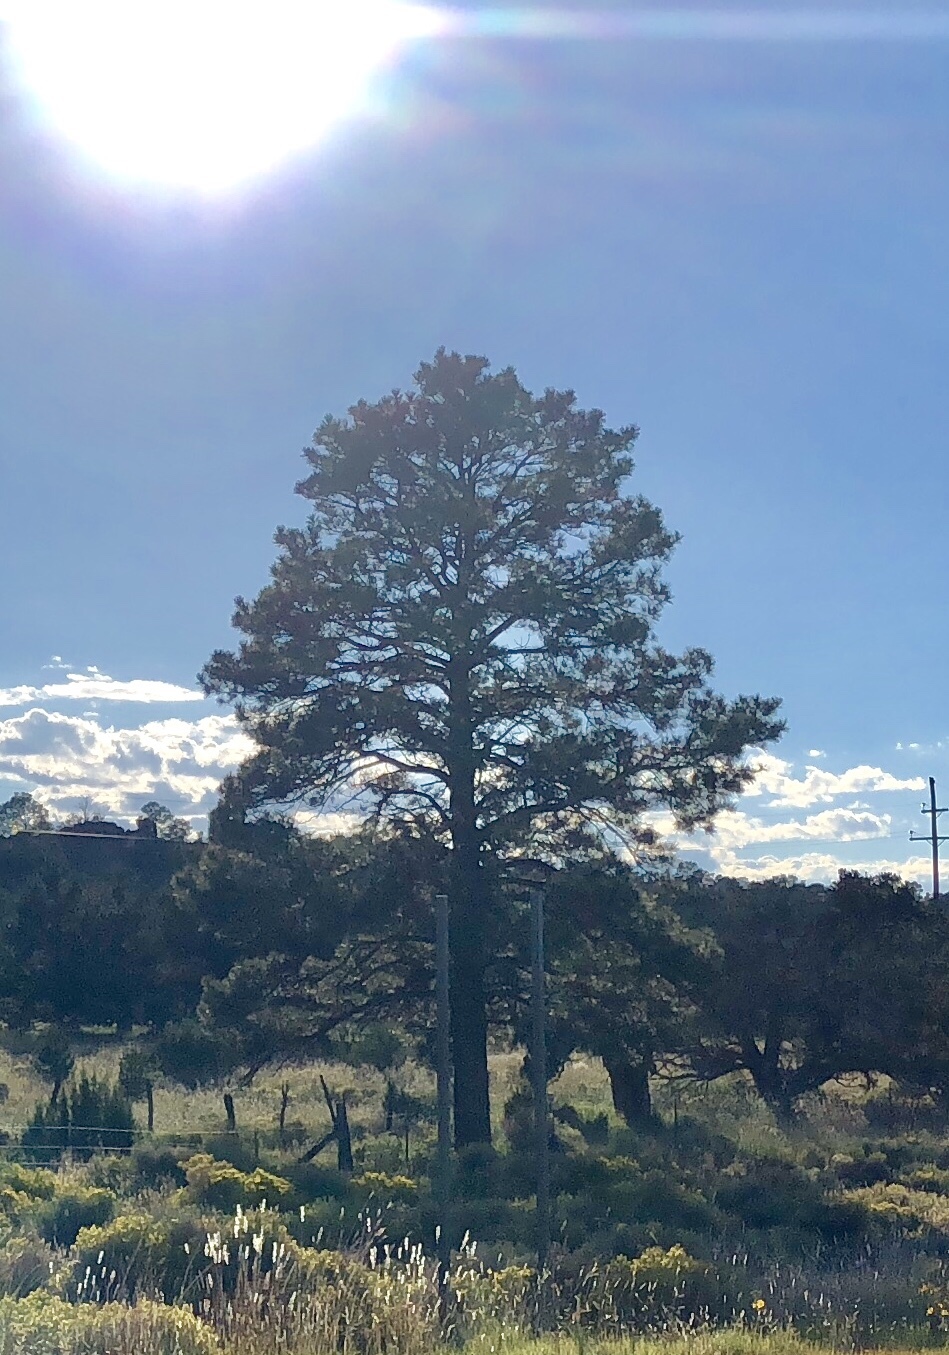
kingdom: Plantae
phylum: Tracheophyta
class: Pinopsida
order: Pinales
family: Pinaceae
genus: Pinus
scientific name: Pinus ponderosa
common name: Western yellow-pine
